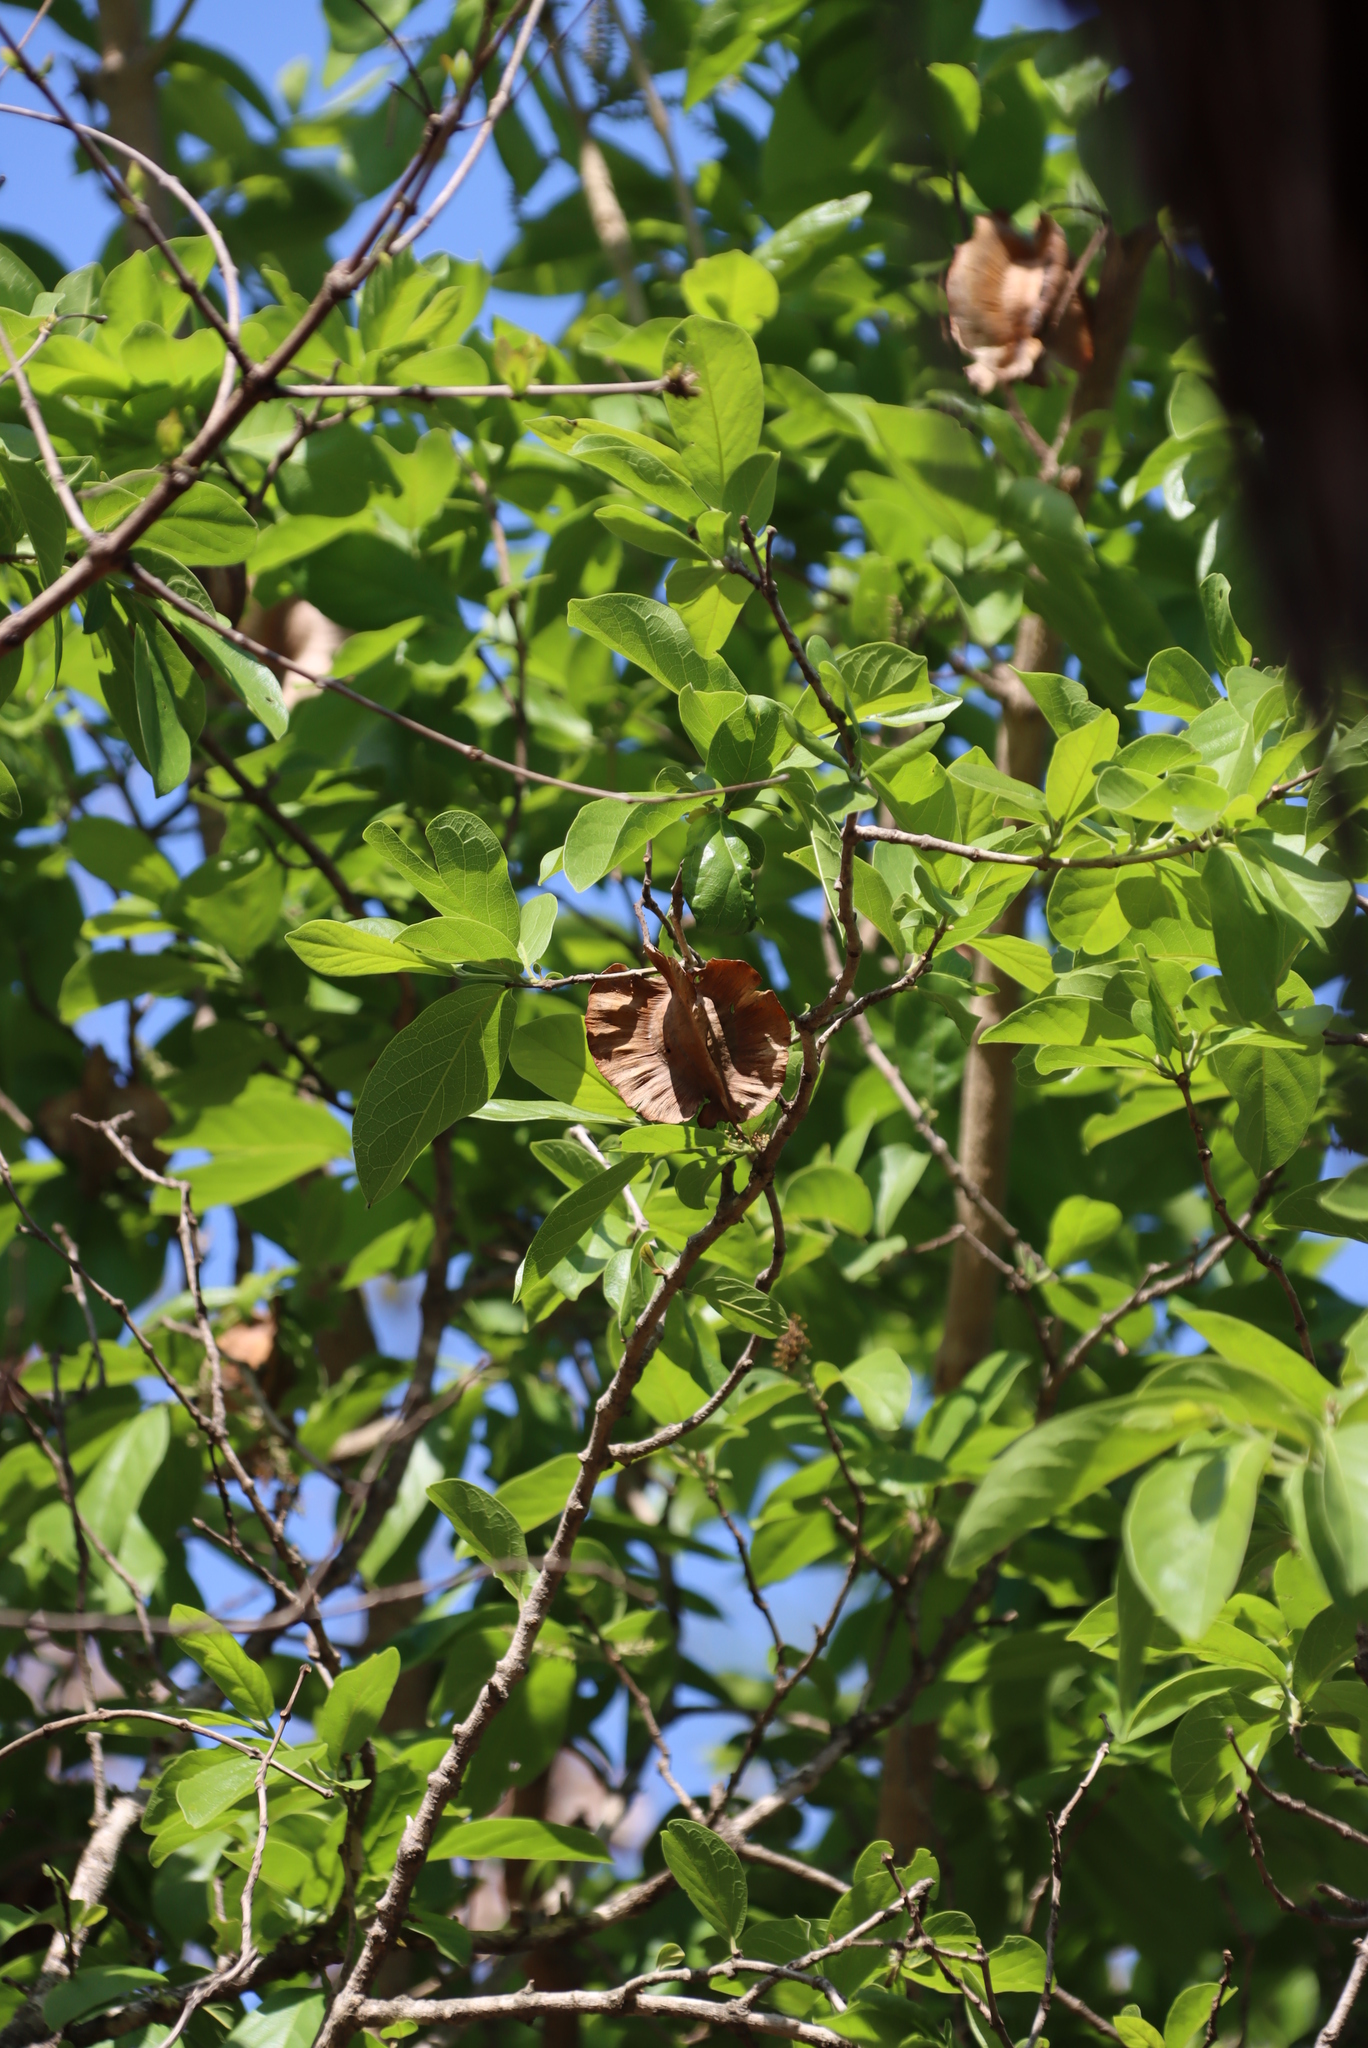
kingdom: Plantae
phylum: Tracheophyta
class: Magnoliopsida
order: Fabales
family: Fabaceae
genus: Pterocarpus
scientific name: Pterocarpus angolensis
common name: Bloodwood tree
